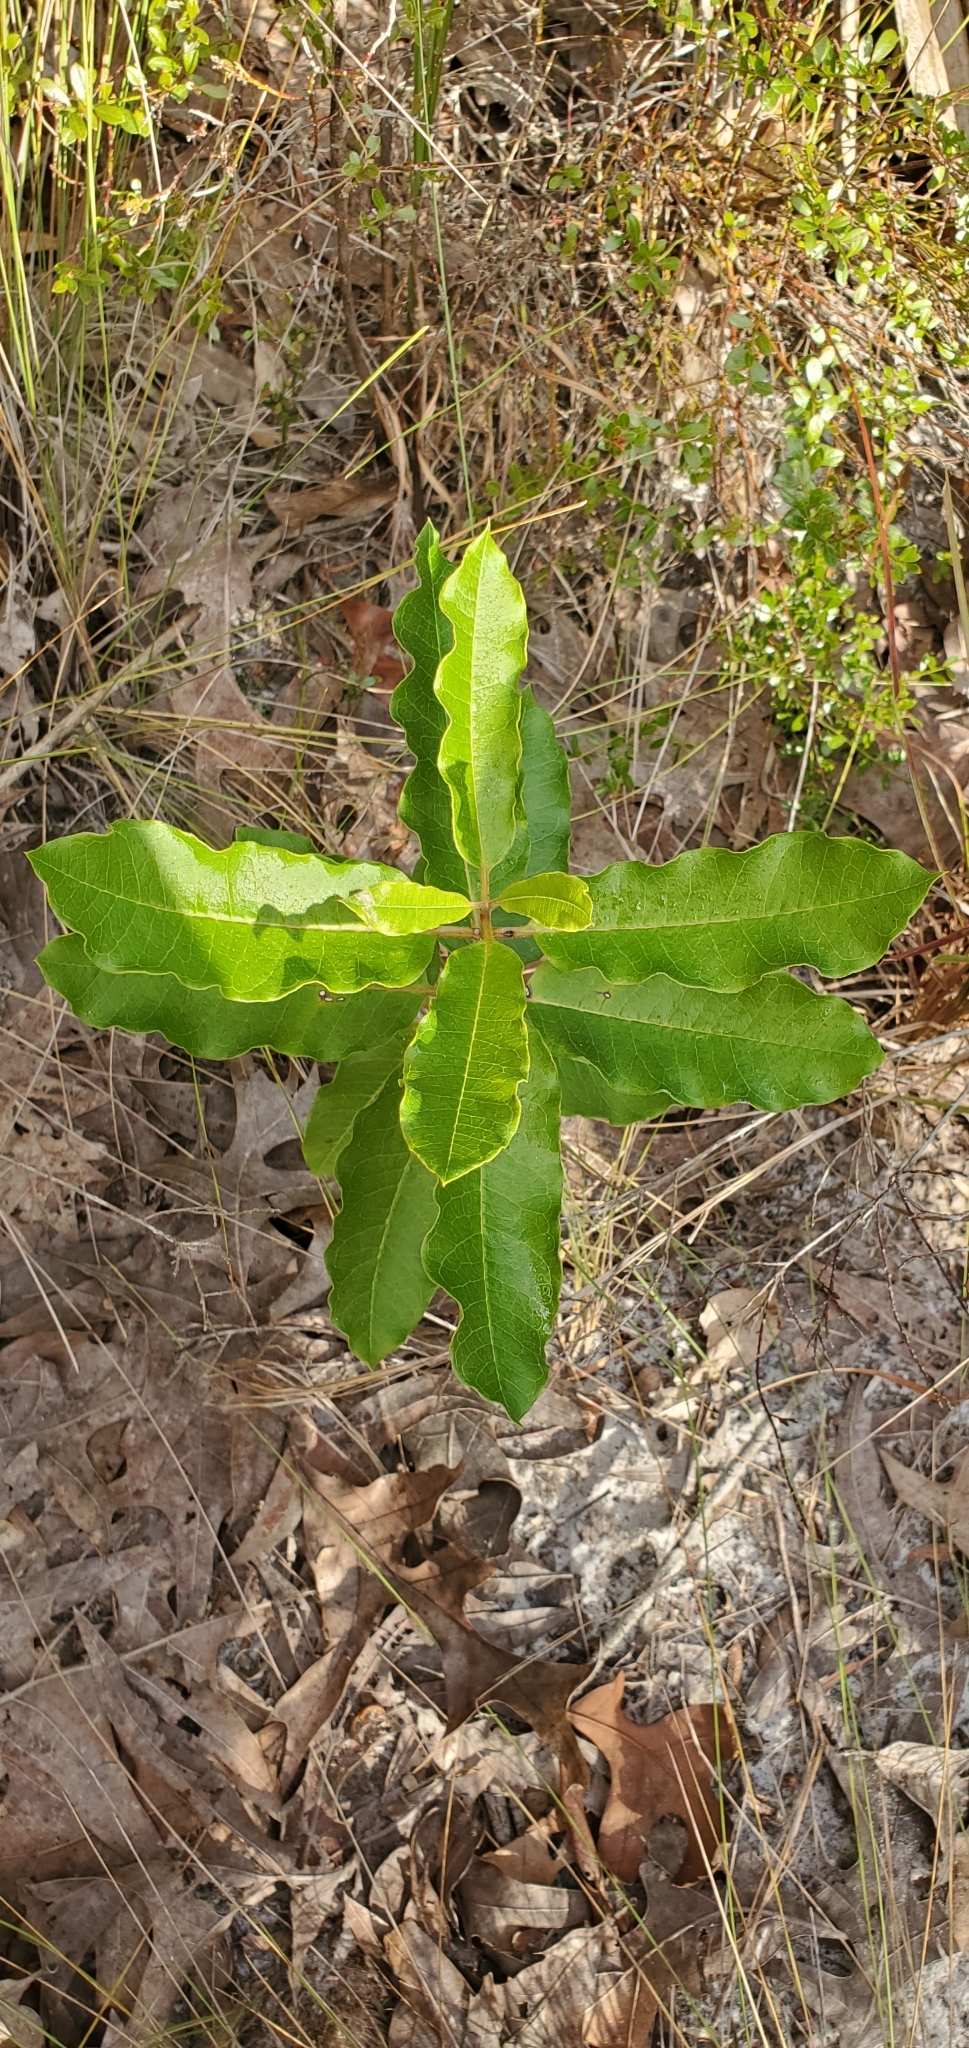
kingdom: Plantae
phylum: Tracheophyta
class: Magnoliopsida
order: Gentianales
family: Apocynaceae
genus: Asclepias
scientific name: Asclepias tomentosa
